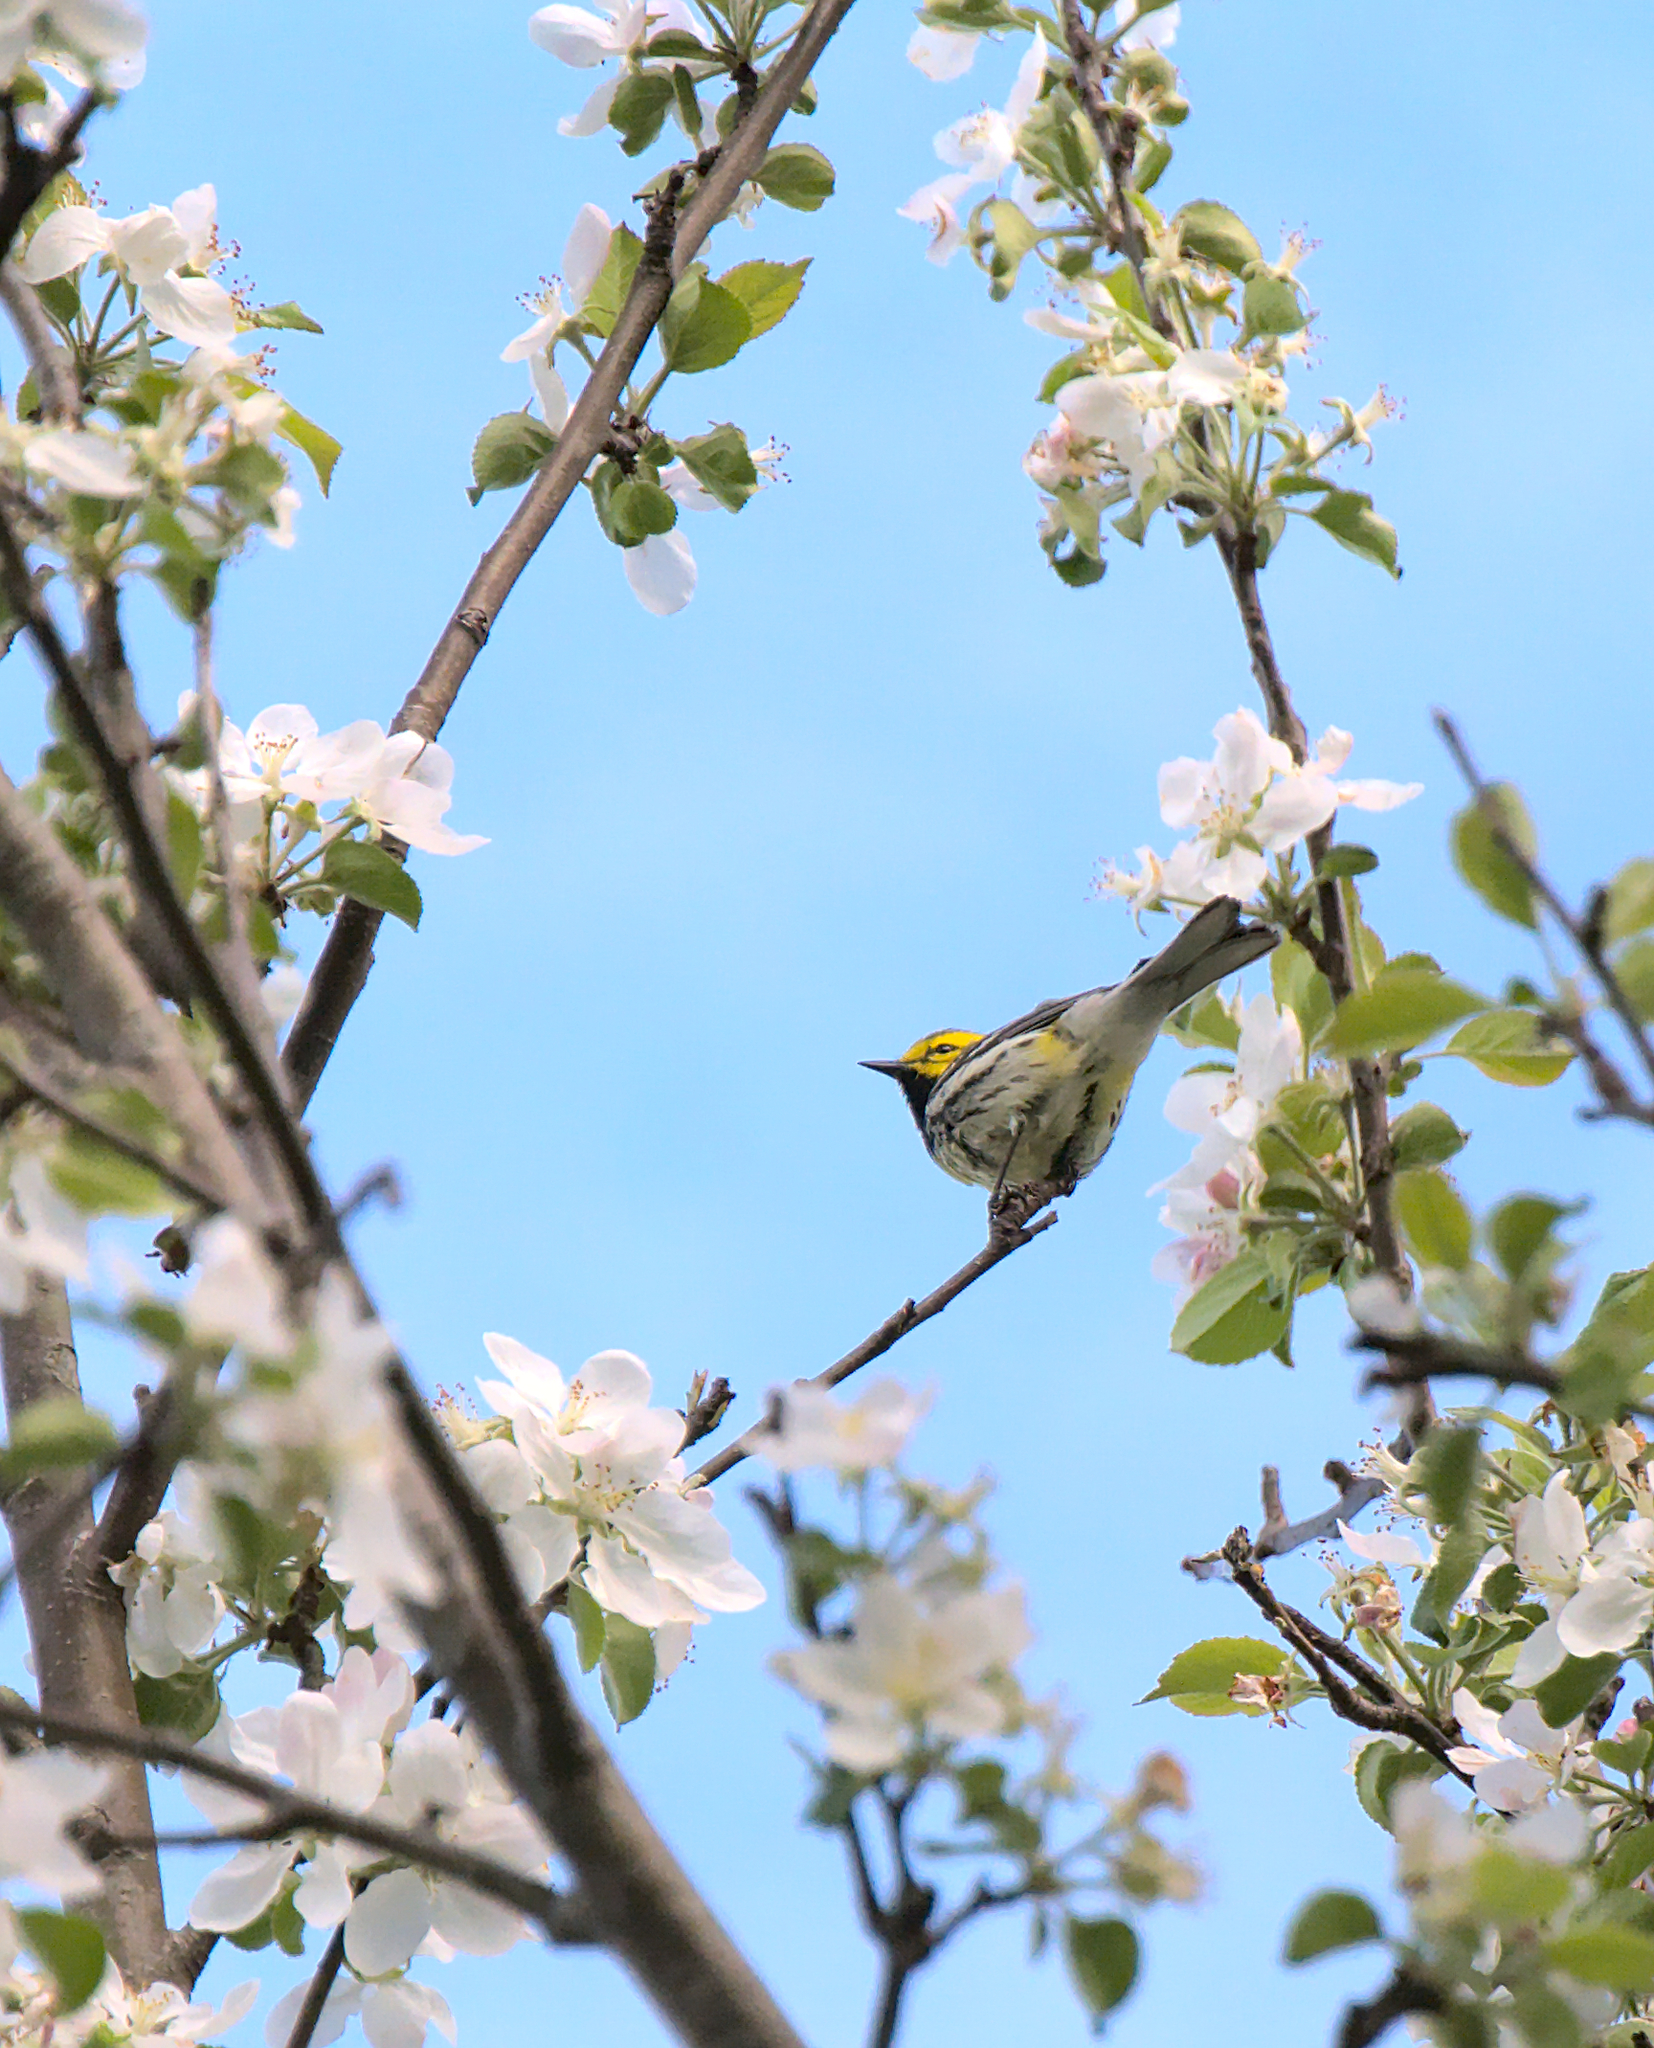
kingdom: Animalia
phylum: Chordata
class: Aves
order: Passeriformes
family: Parulidae
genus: Setophaga
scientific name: Setophaga virens
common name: Black-throated green warbler
